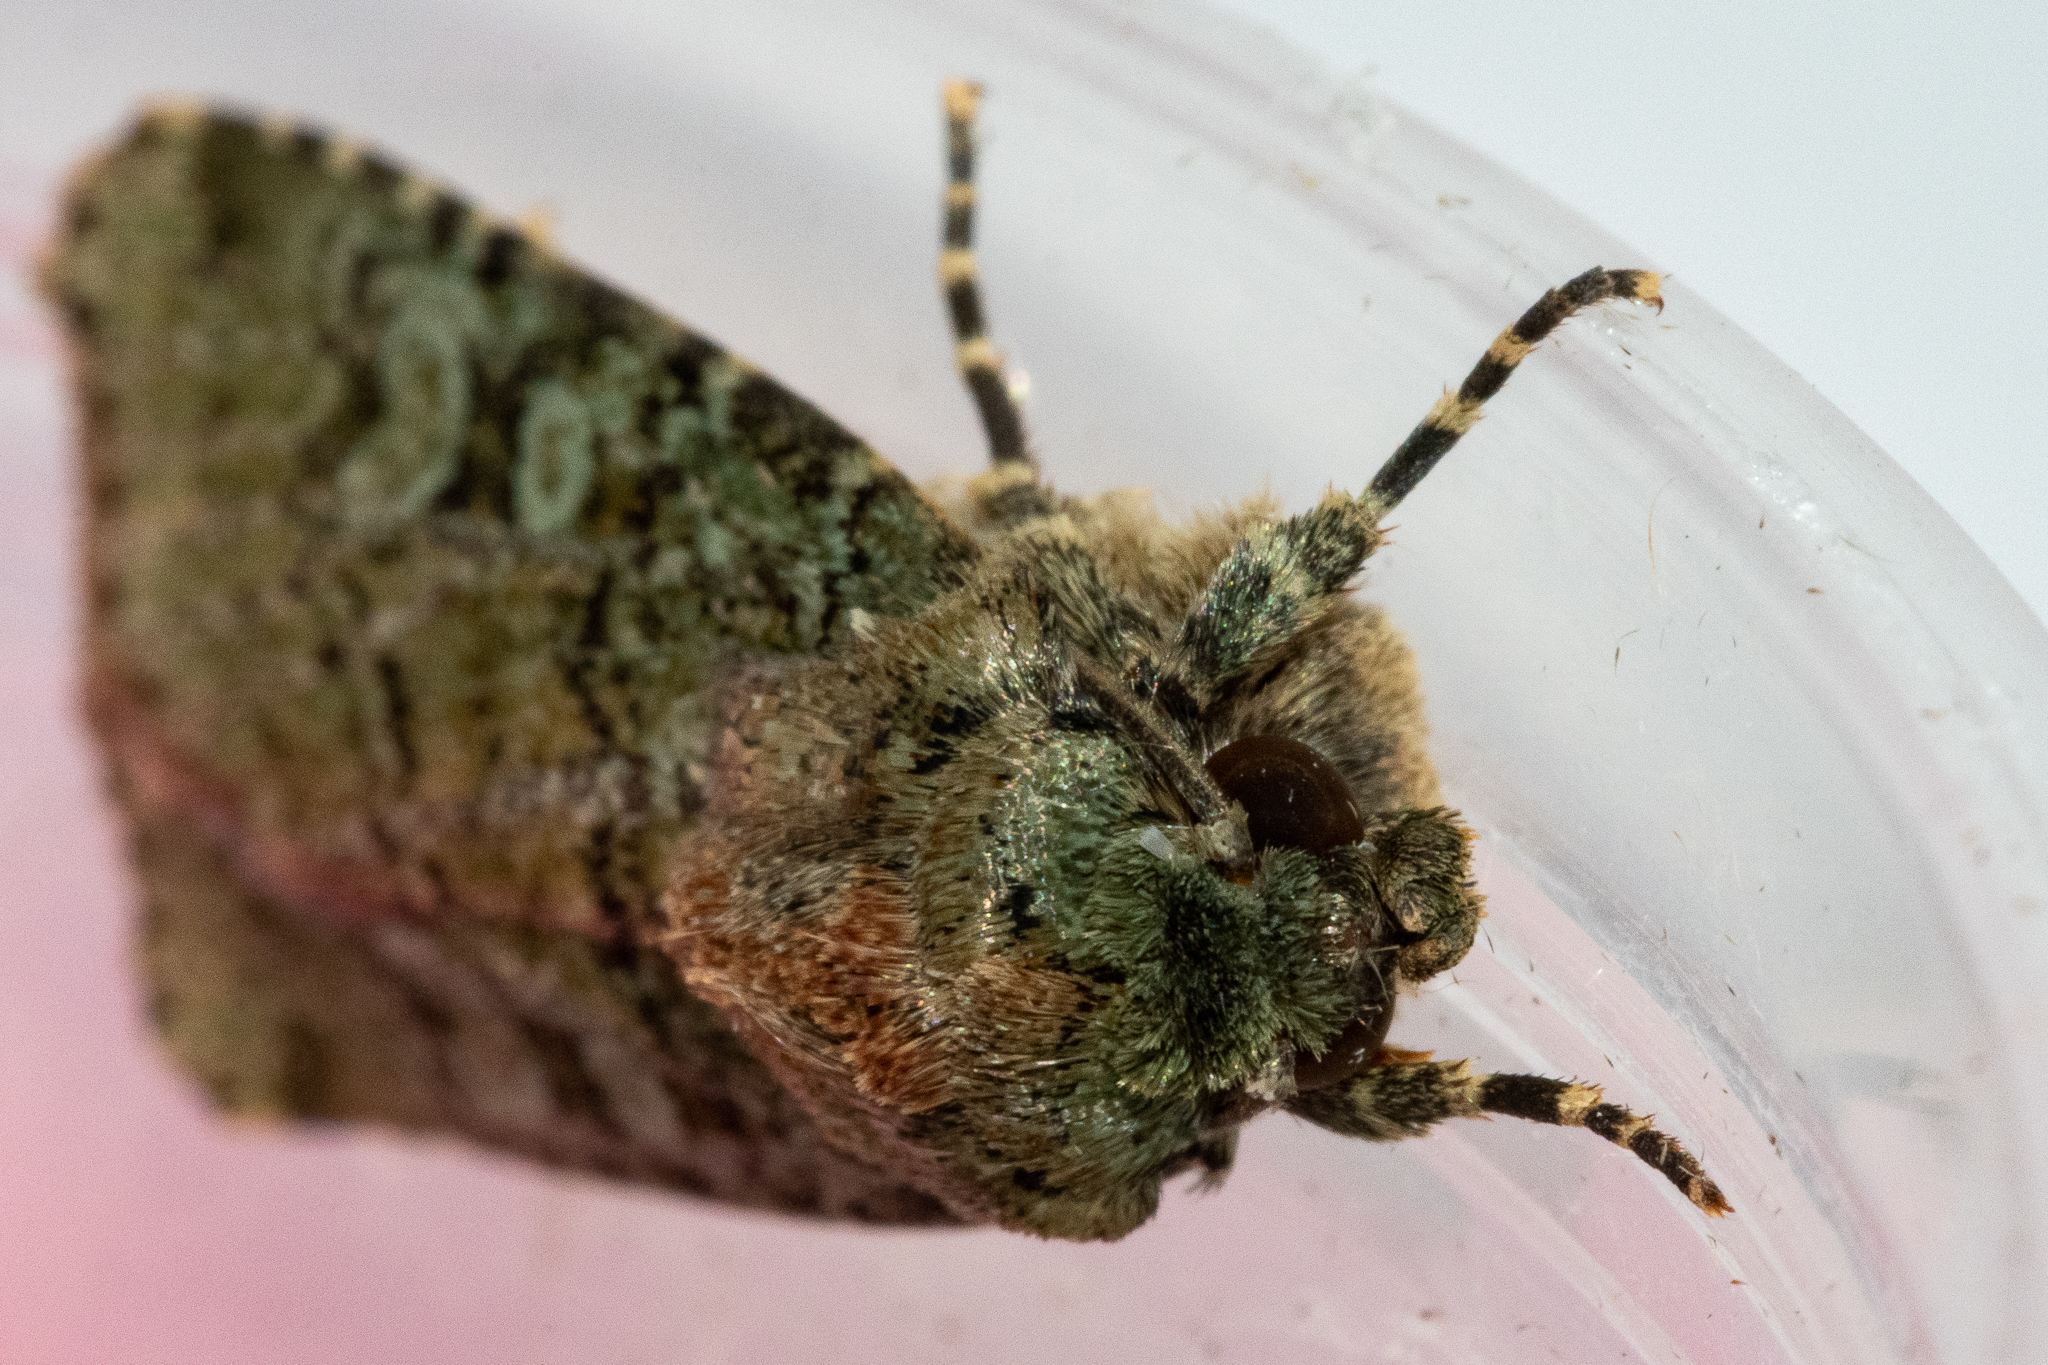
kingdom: Animalia
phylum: Arthropoda
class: Insecta
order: Lepidoptera
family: Noctuidae
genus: Klugeana
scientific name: Klugeana philoxalis
